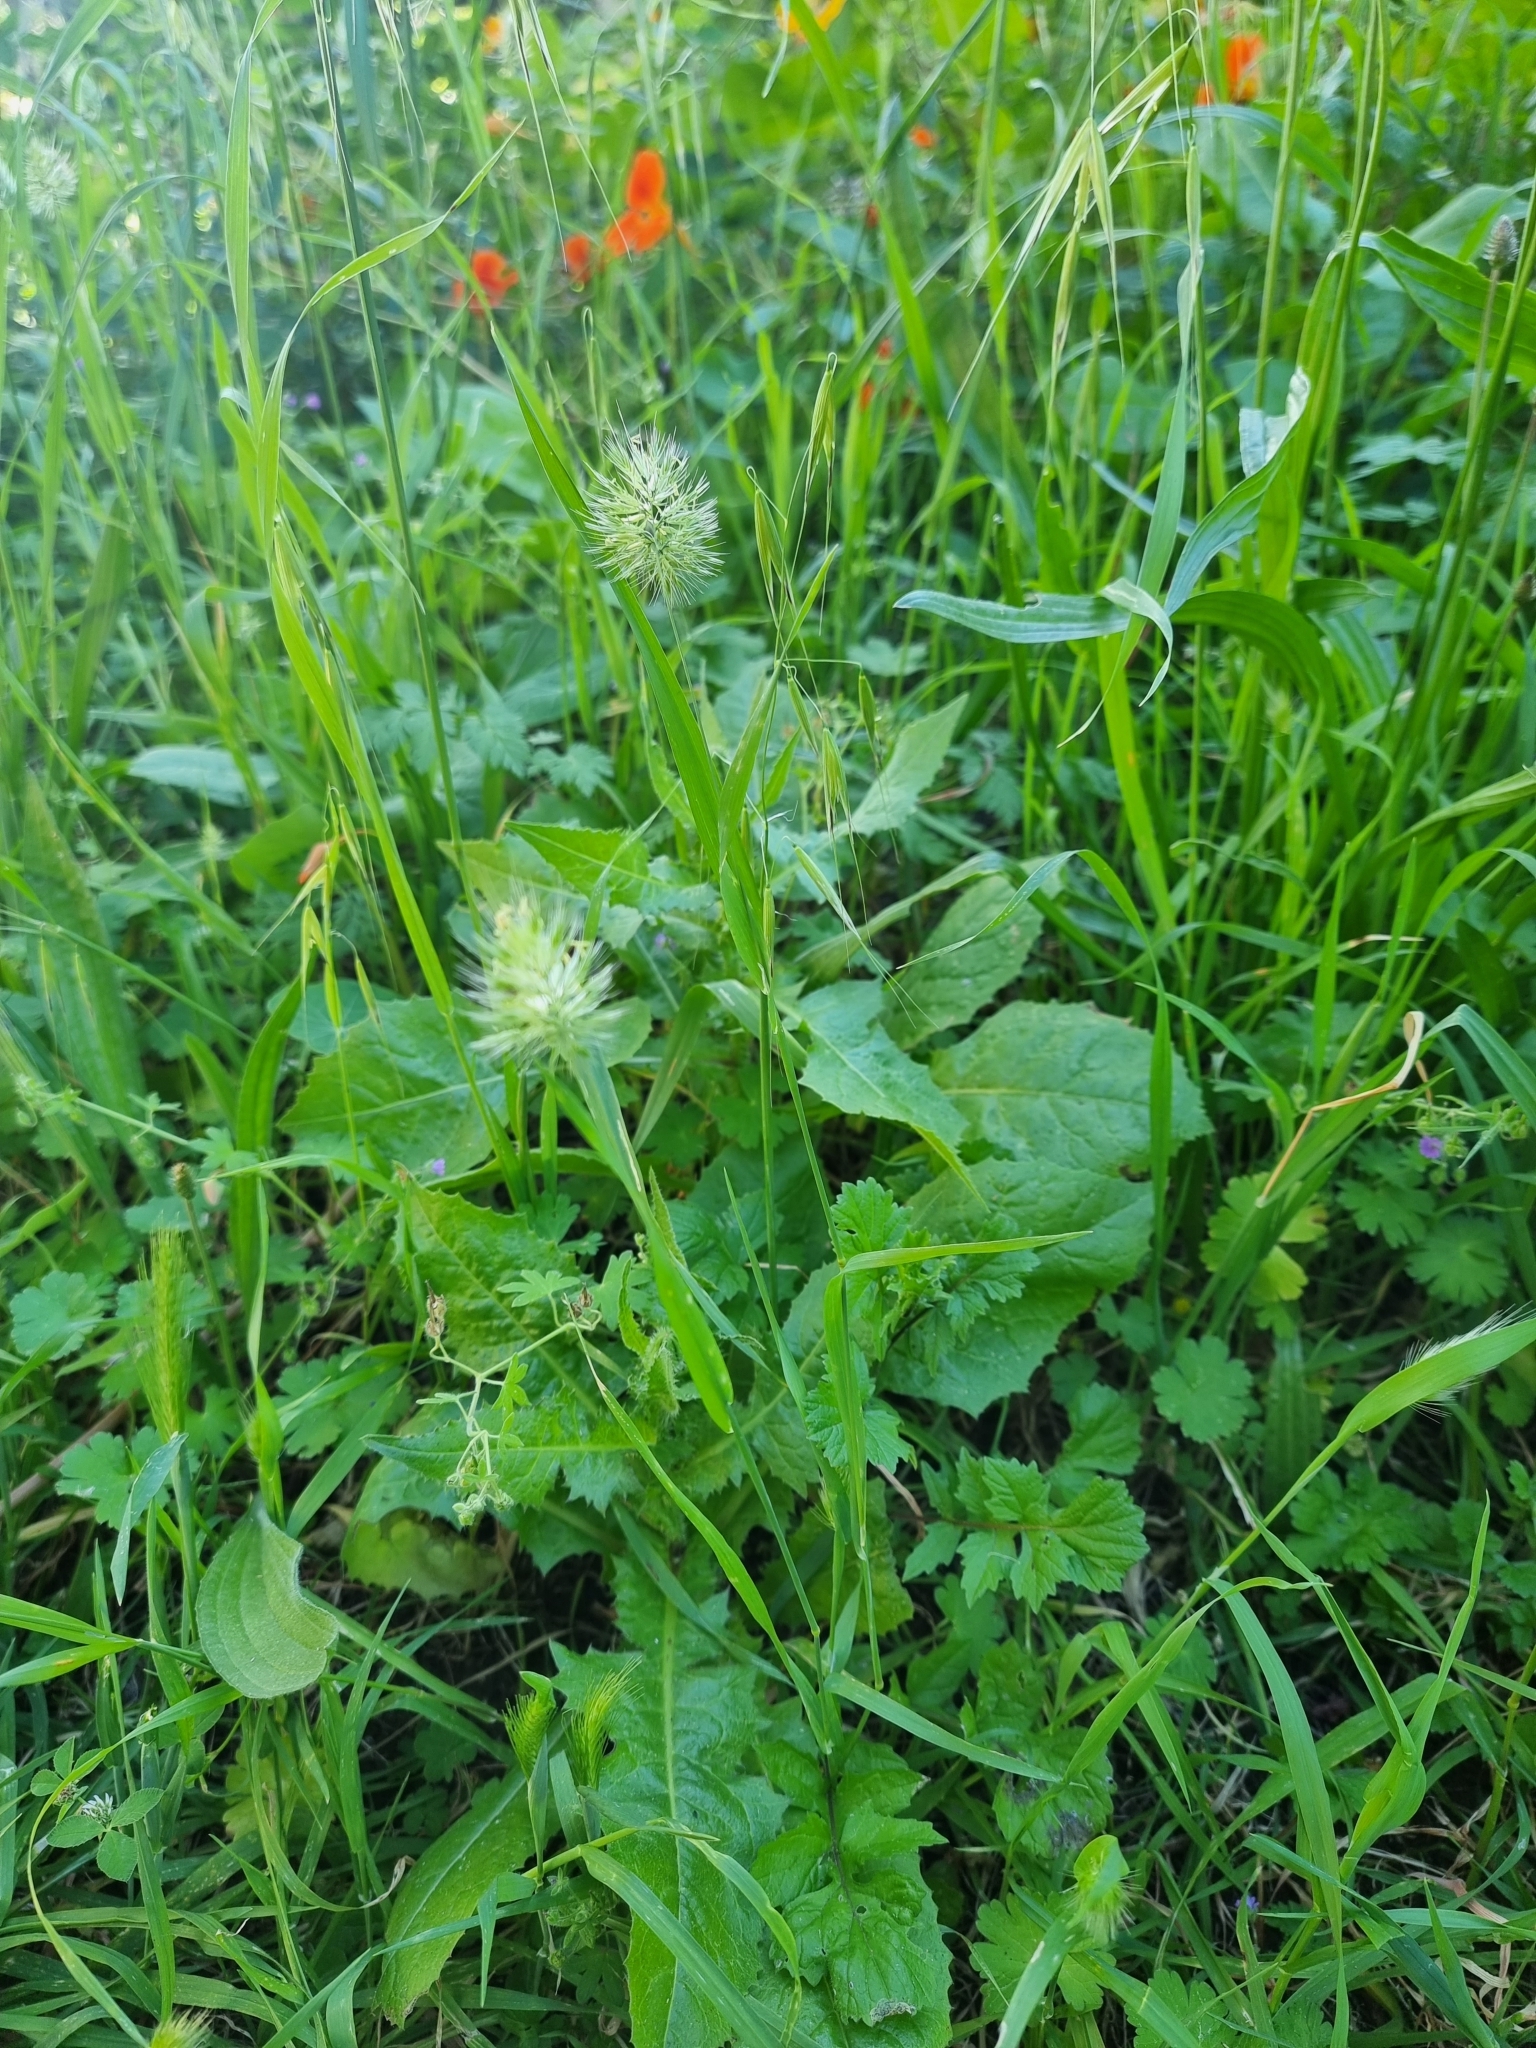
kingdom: Plantae
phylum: Tracheophyta
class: Liliopsida
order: Poales
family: Poaceae
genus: Cynosurus
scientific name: Cynosurus echinatus
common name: Rough dog's-tail
